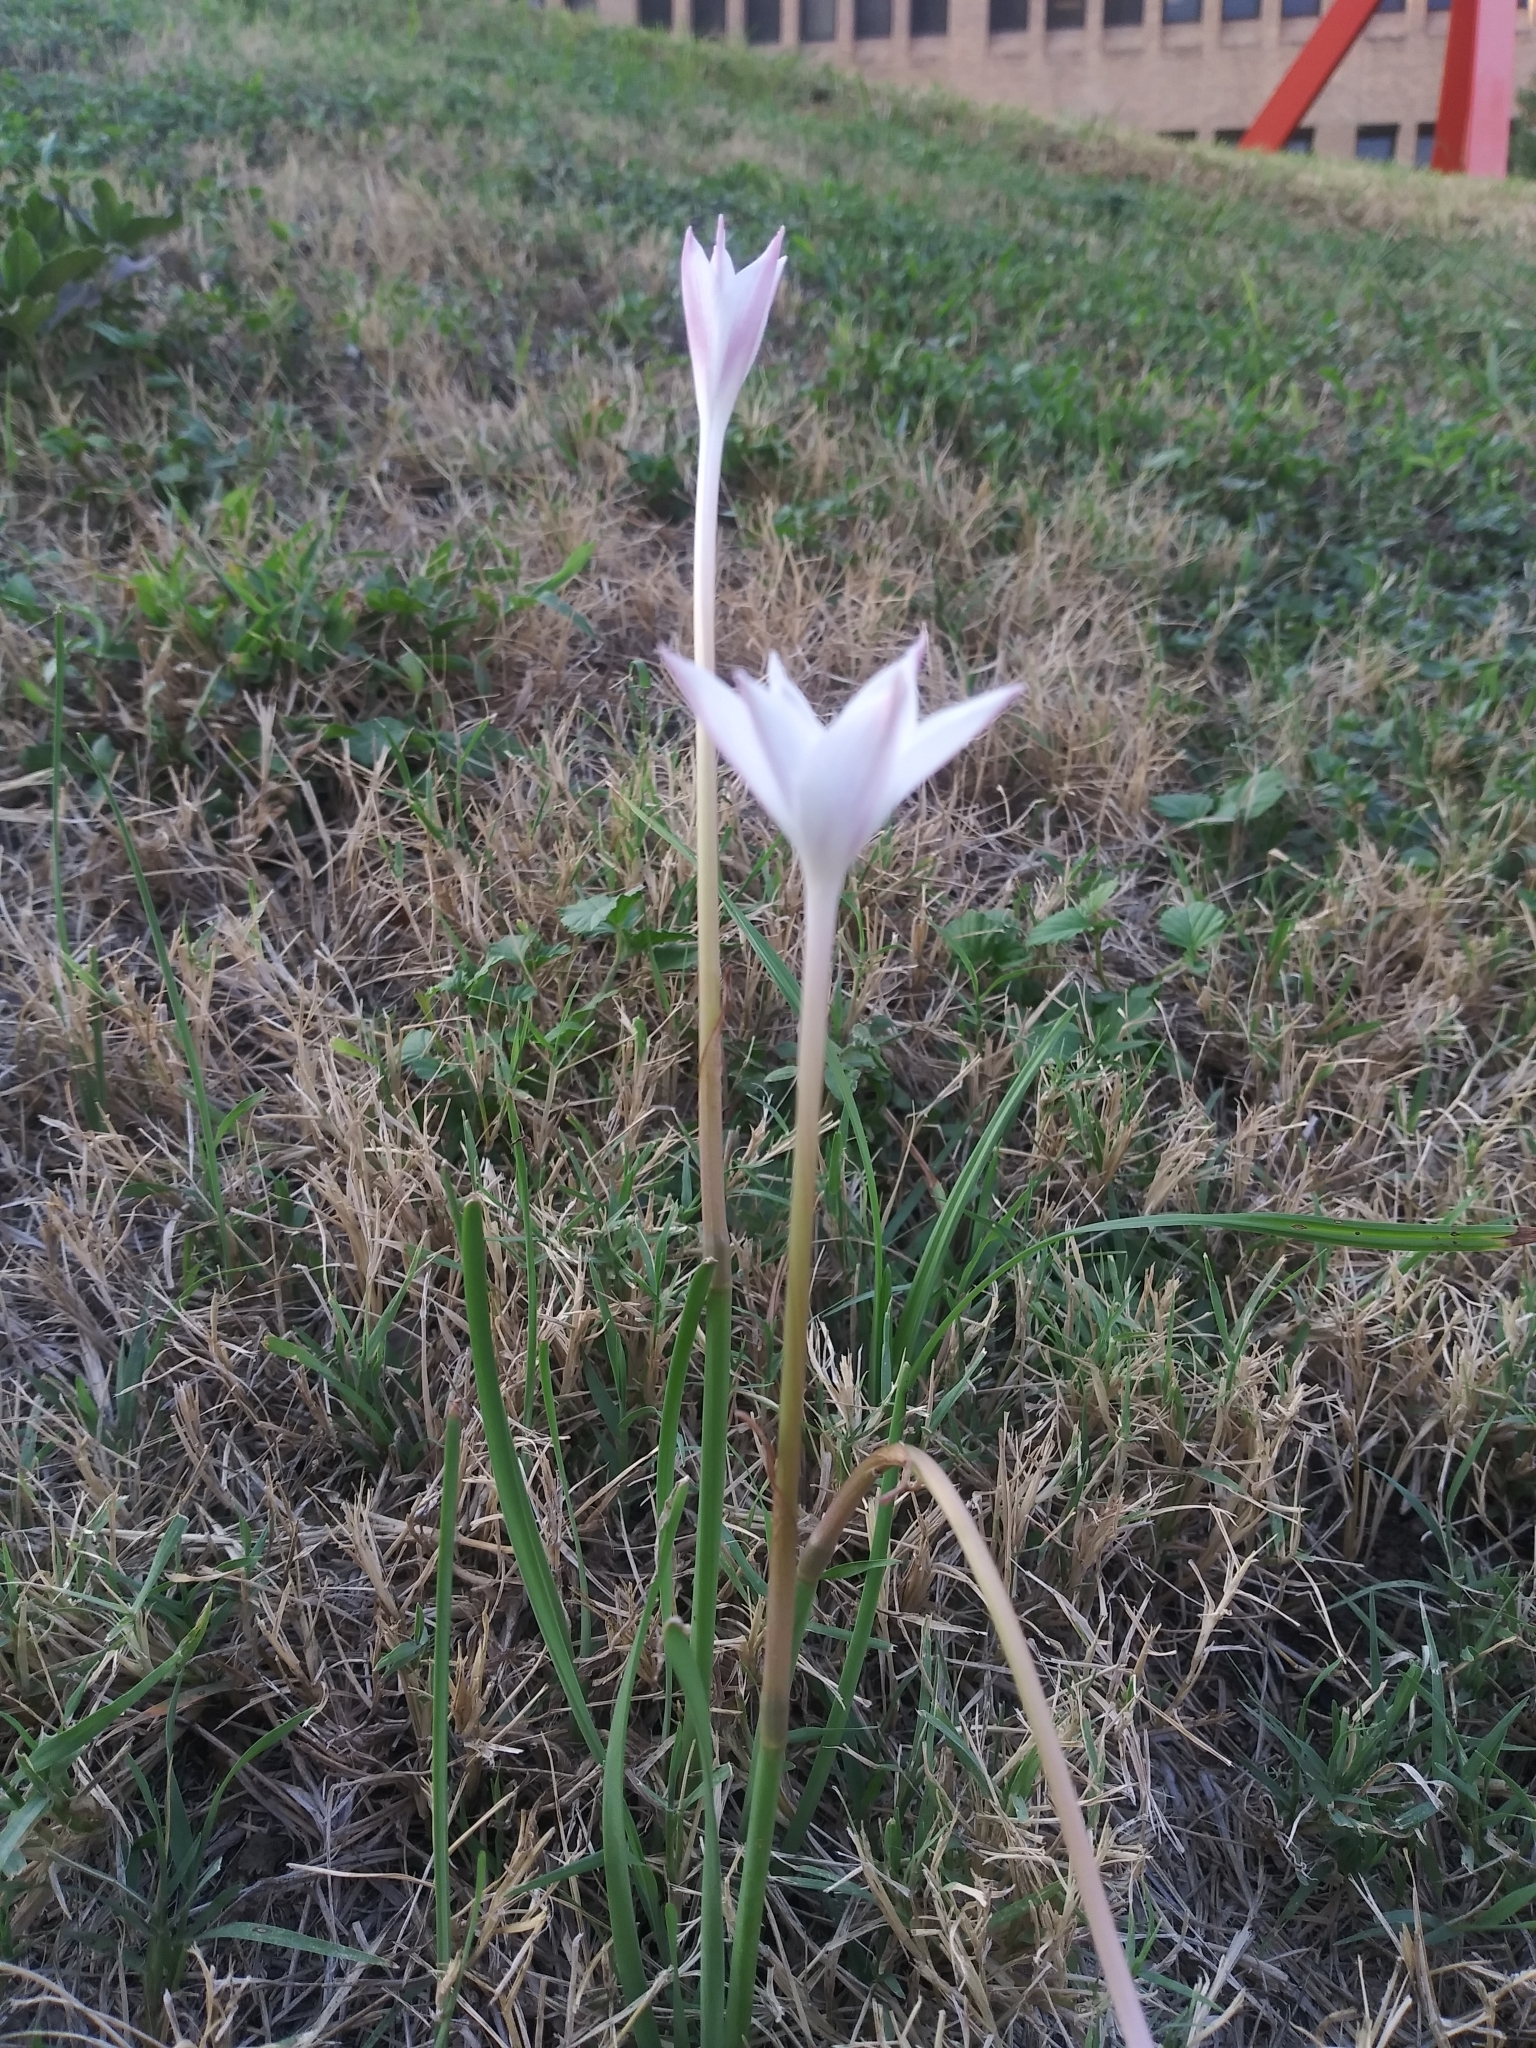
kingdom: Plantae
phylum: Tracheophyta
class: Liliopsida
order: Asparagales
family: Amaryllidaceae
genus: Zephyranthes
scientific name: Zephyranthes chlorosolen
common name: Evening rain-lily
